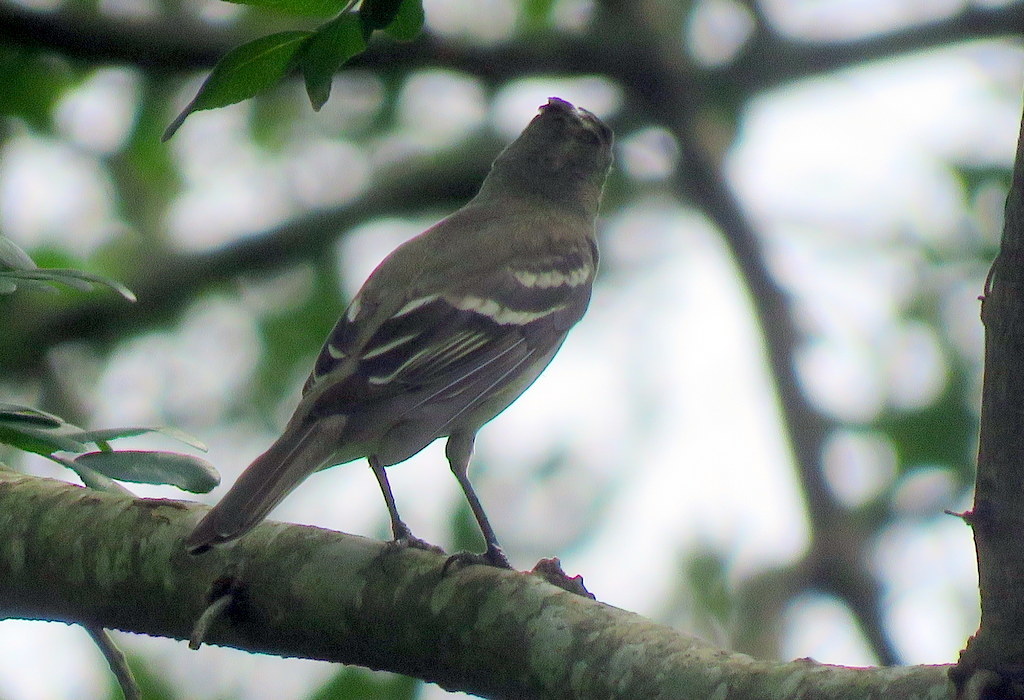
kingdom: Animalia
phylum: Chordata
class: Aves
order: Passeriformes
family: Tyrannidae
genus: Elaenia
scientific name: Elaenia parvirostris
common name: Small-billed elaenia
